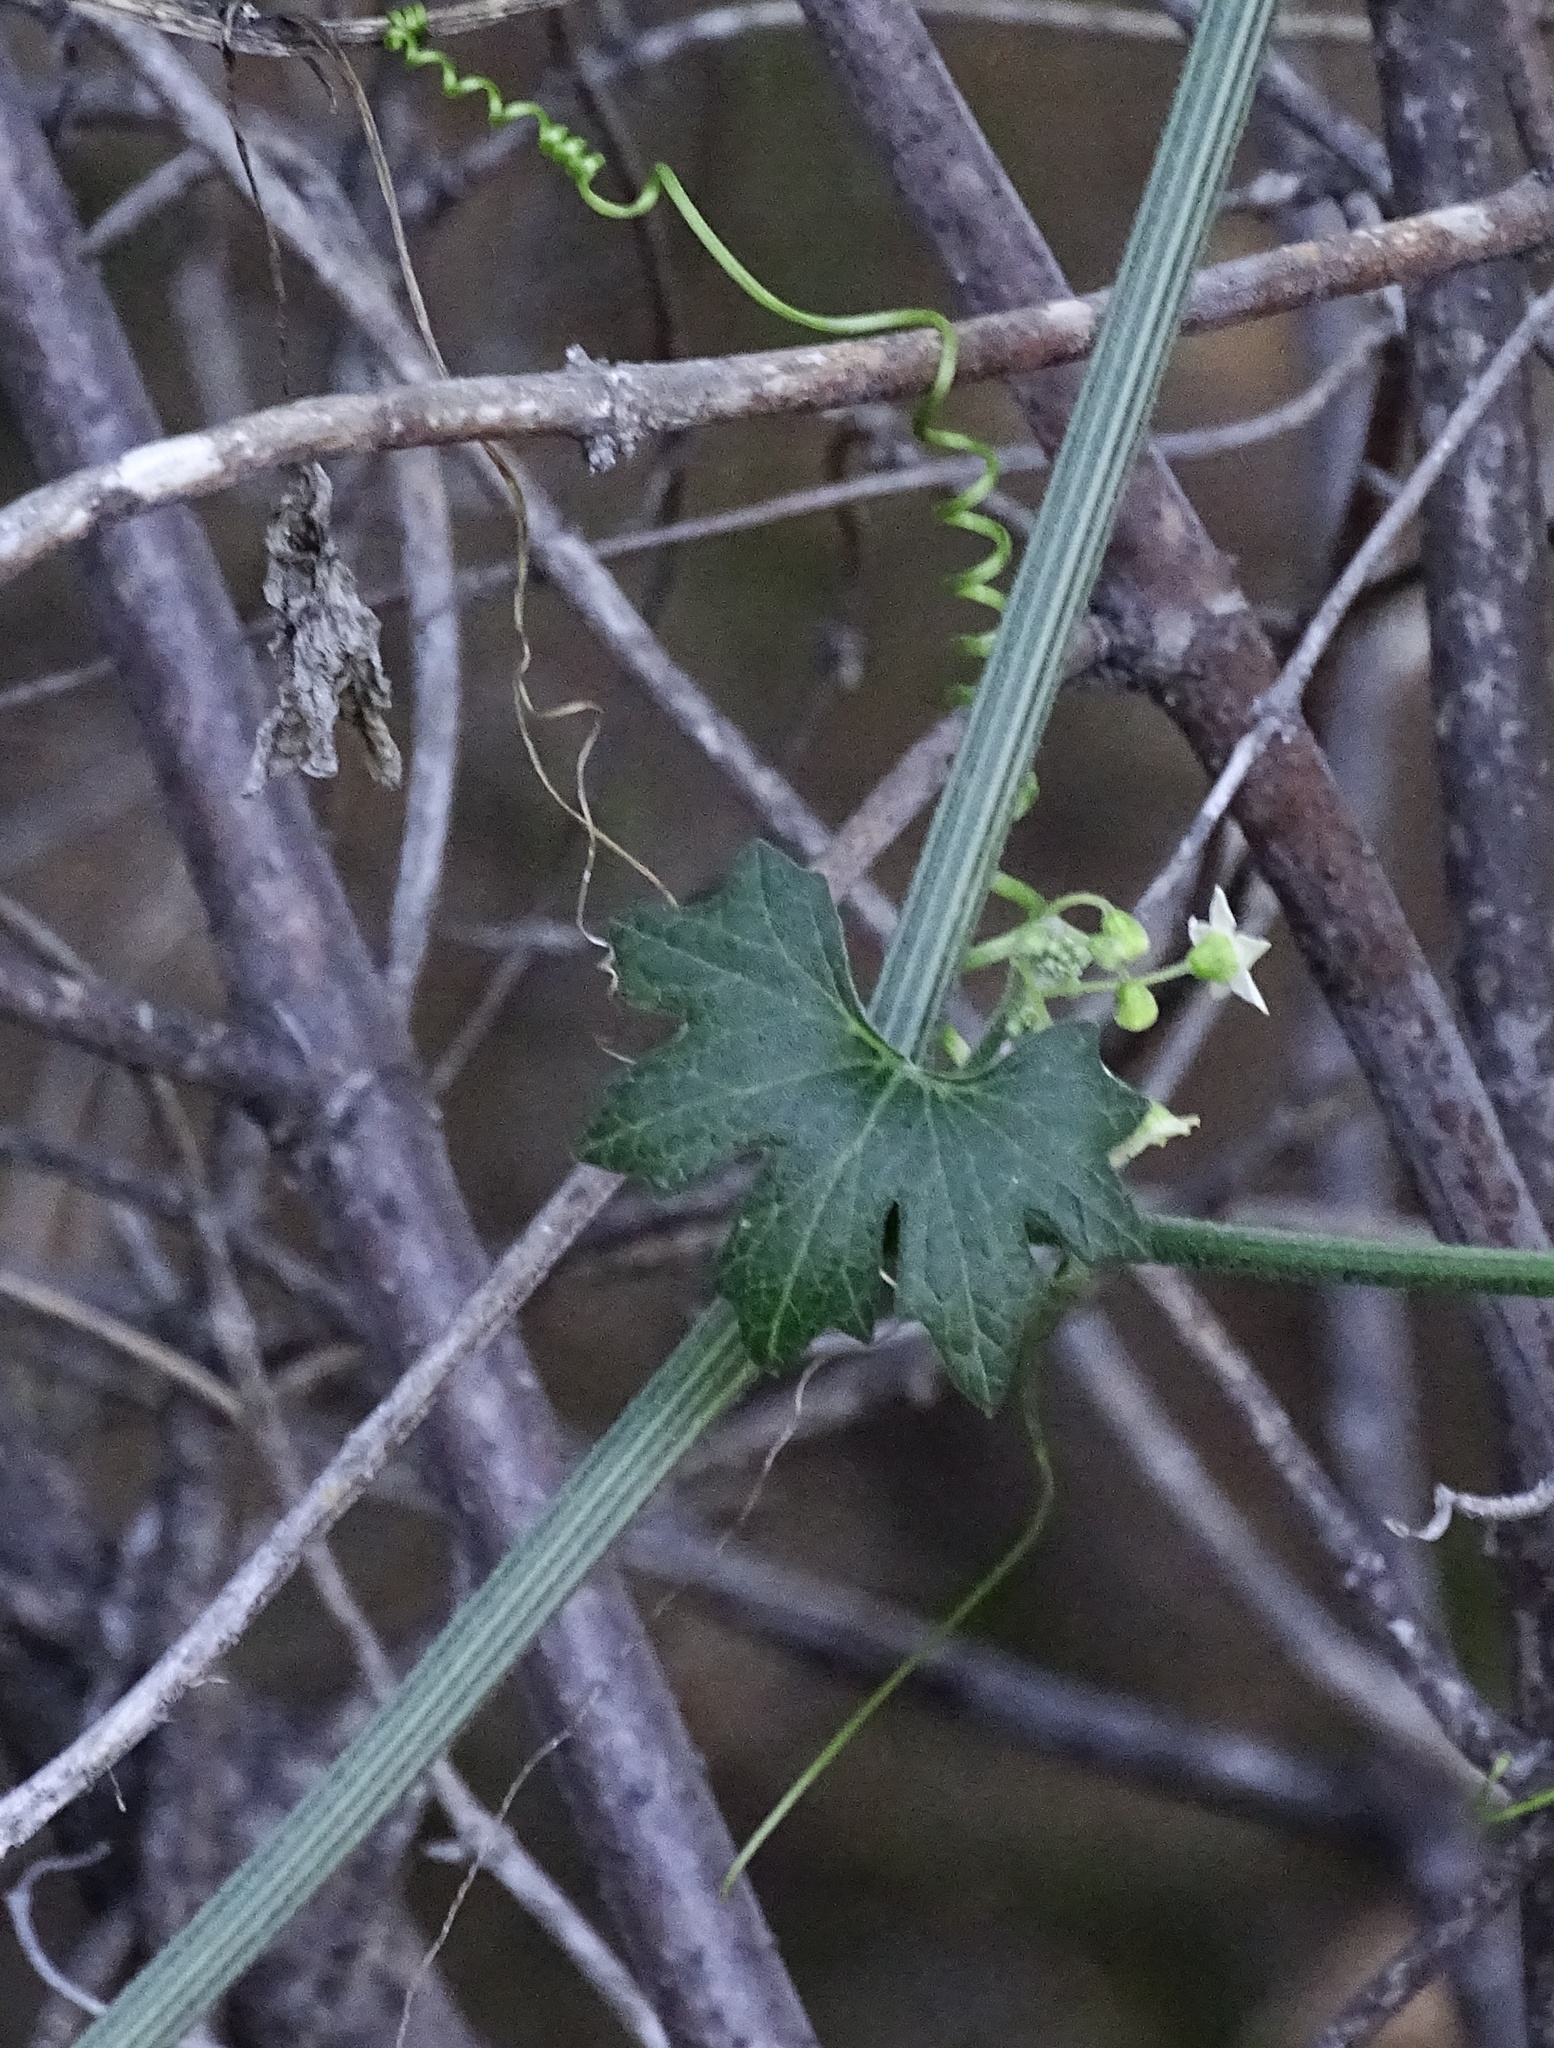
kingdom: Plantae
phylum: Tracheophyta
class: Magnoliopsida
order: Cucurbitales
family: Cucurbitaceae
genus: Marah
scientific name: Marah macrocarpa
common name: Cucamonga manroot
